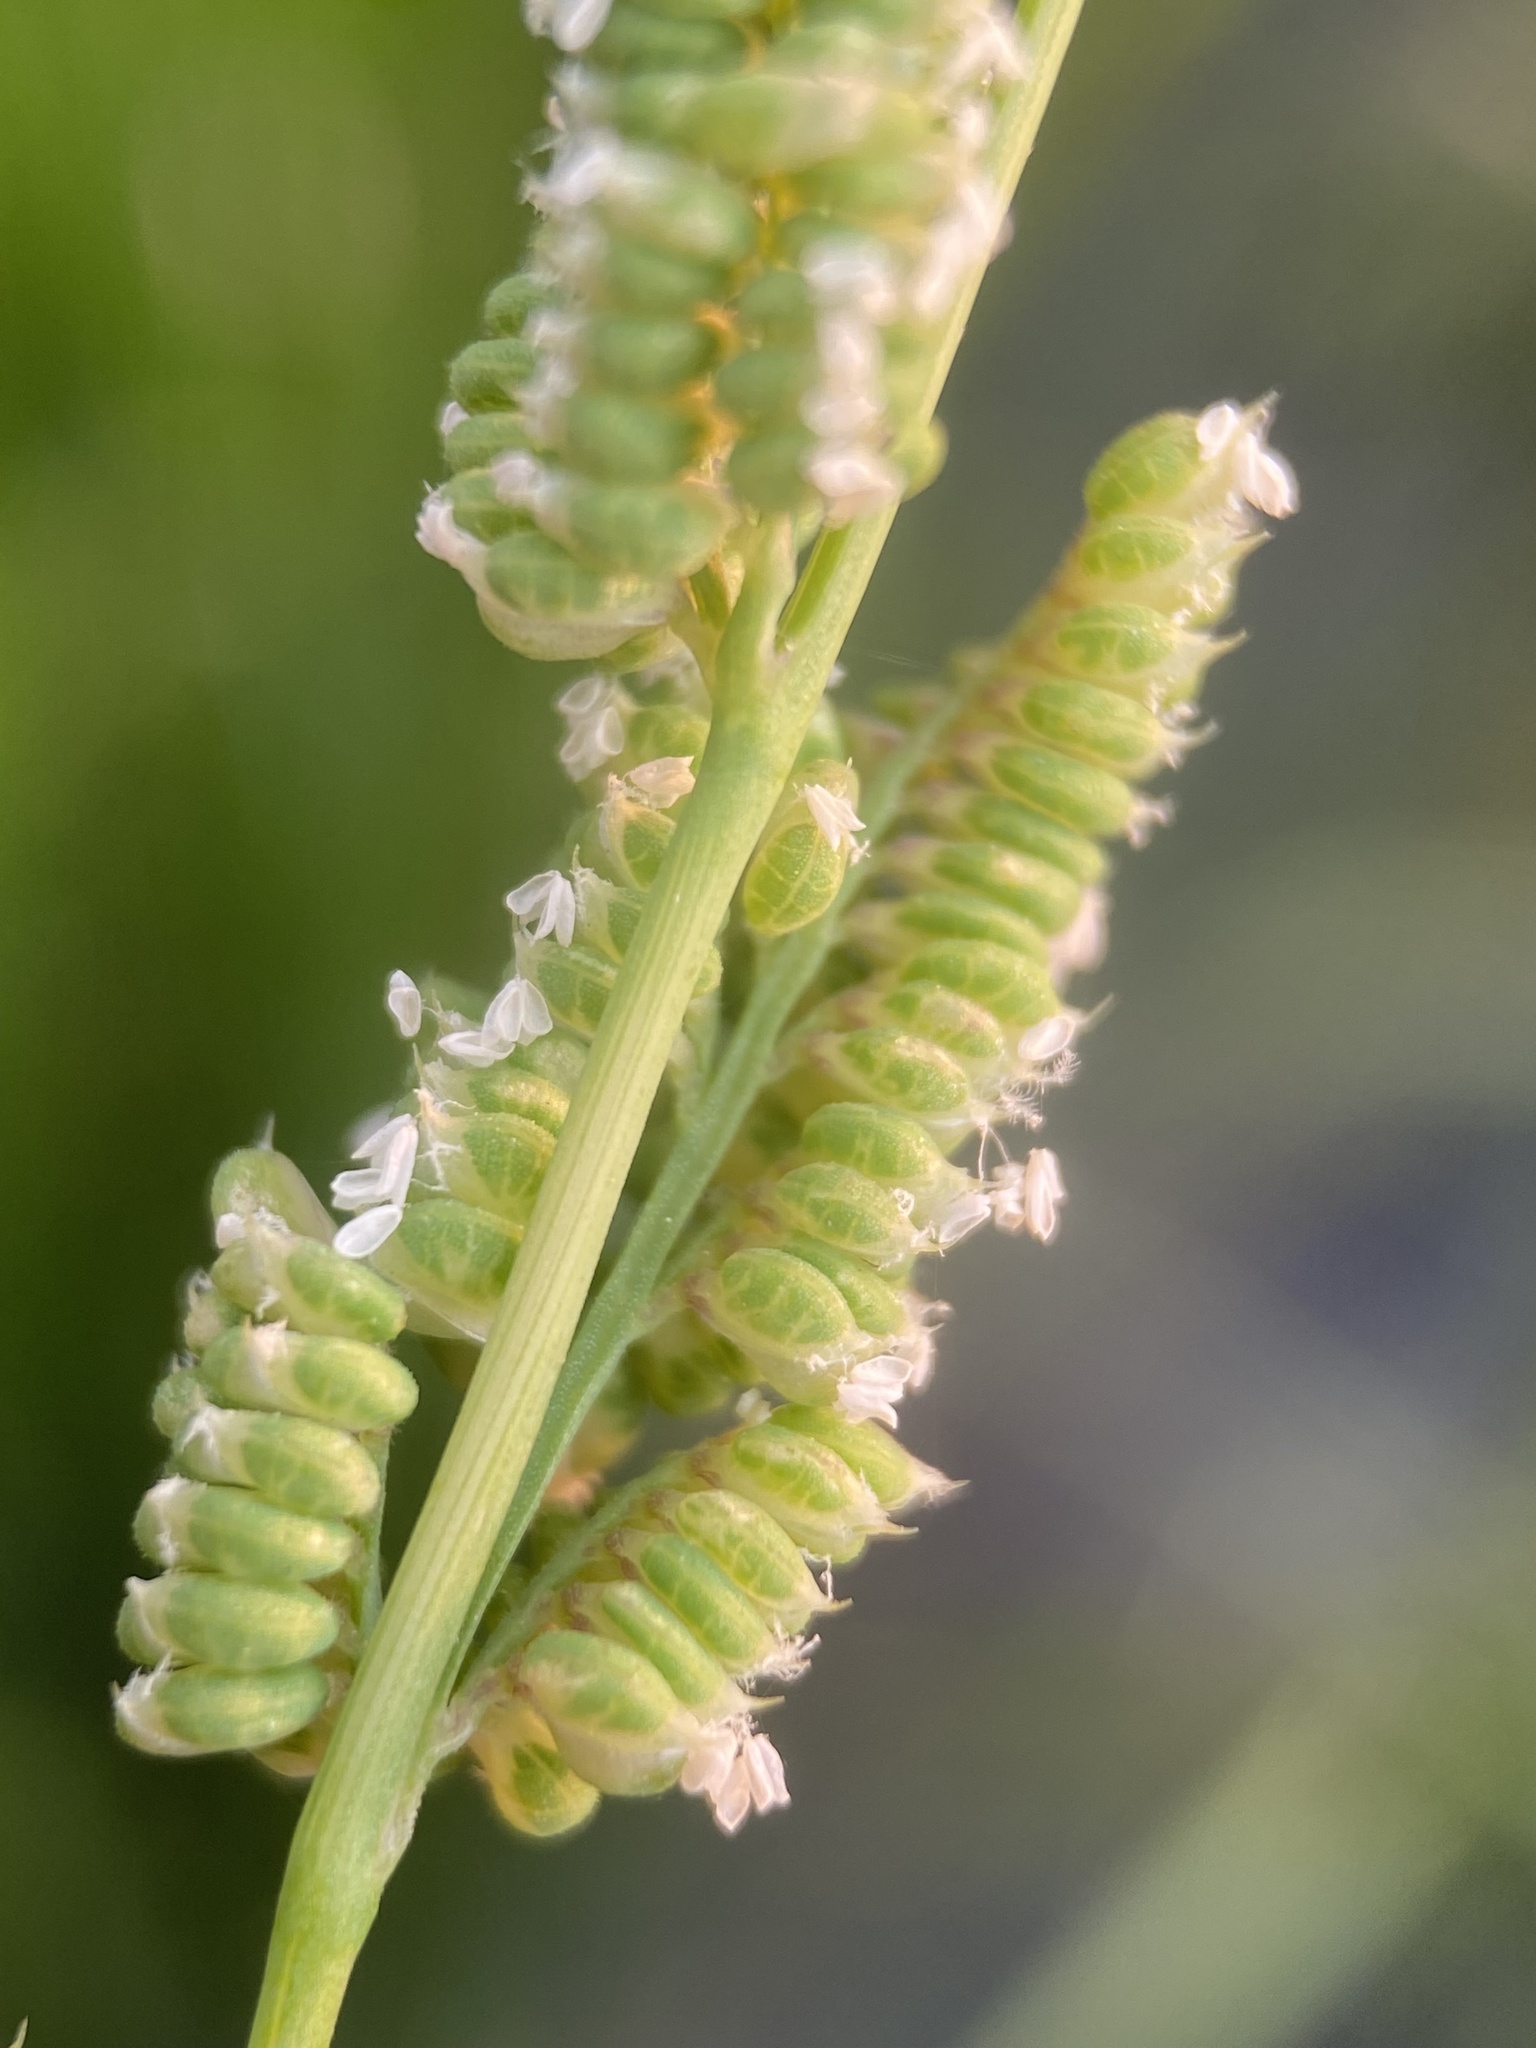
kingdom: Plantae
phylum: Tracheophyta
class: Liliopsida
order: Poales
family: Poaceae
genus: Beckmannia
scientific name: Beckmannia syzigachne
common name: American slough-grass
